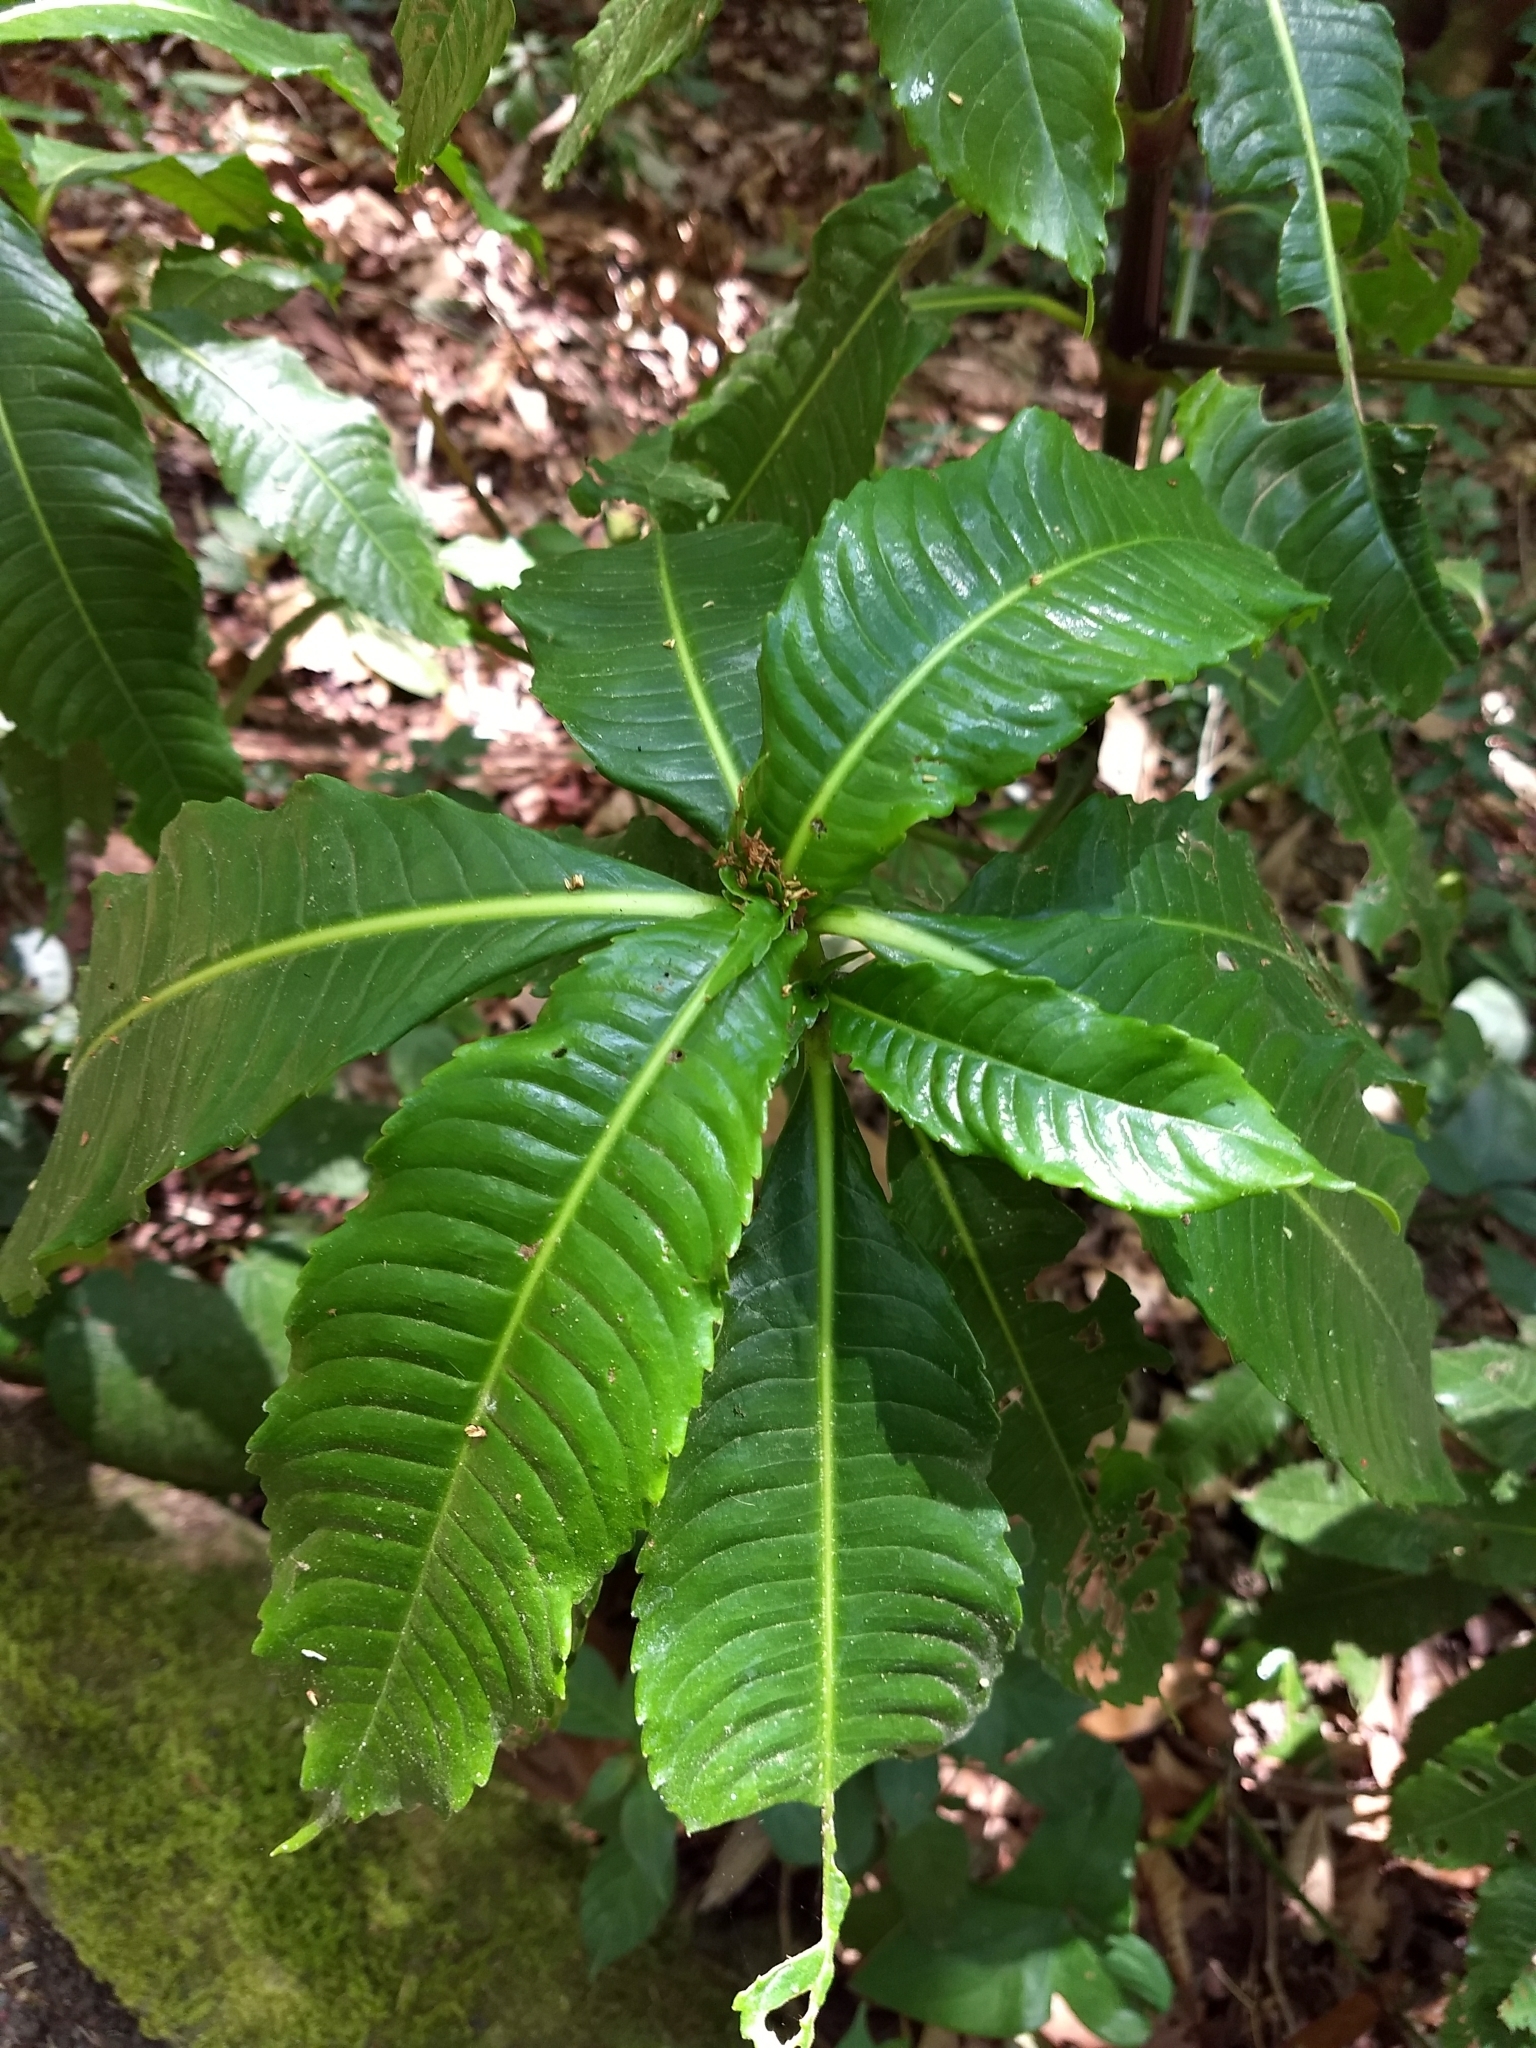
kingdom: Plantae
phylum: Tracheophyta
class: Magnoliopsida
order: Chloranthales
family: Chloranthaceae
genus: Hedyosmum
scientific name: Hedyosmum mexicanum
